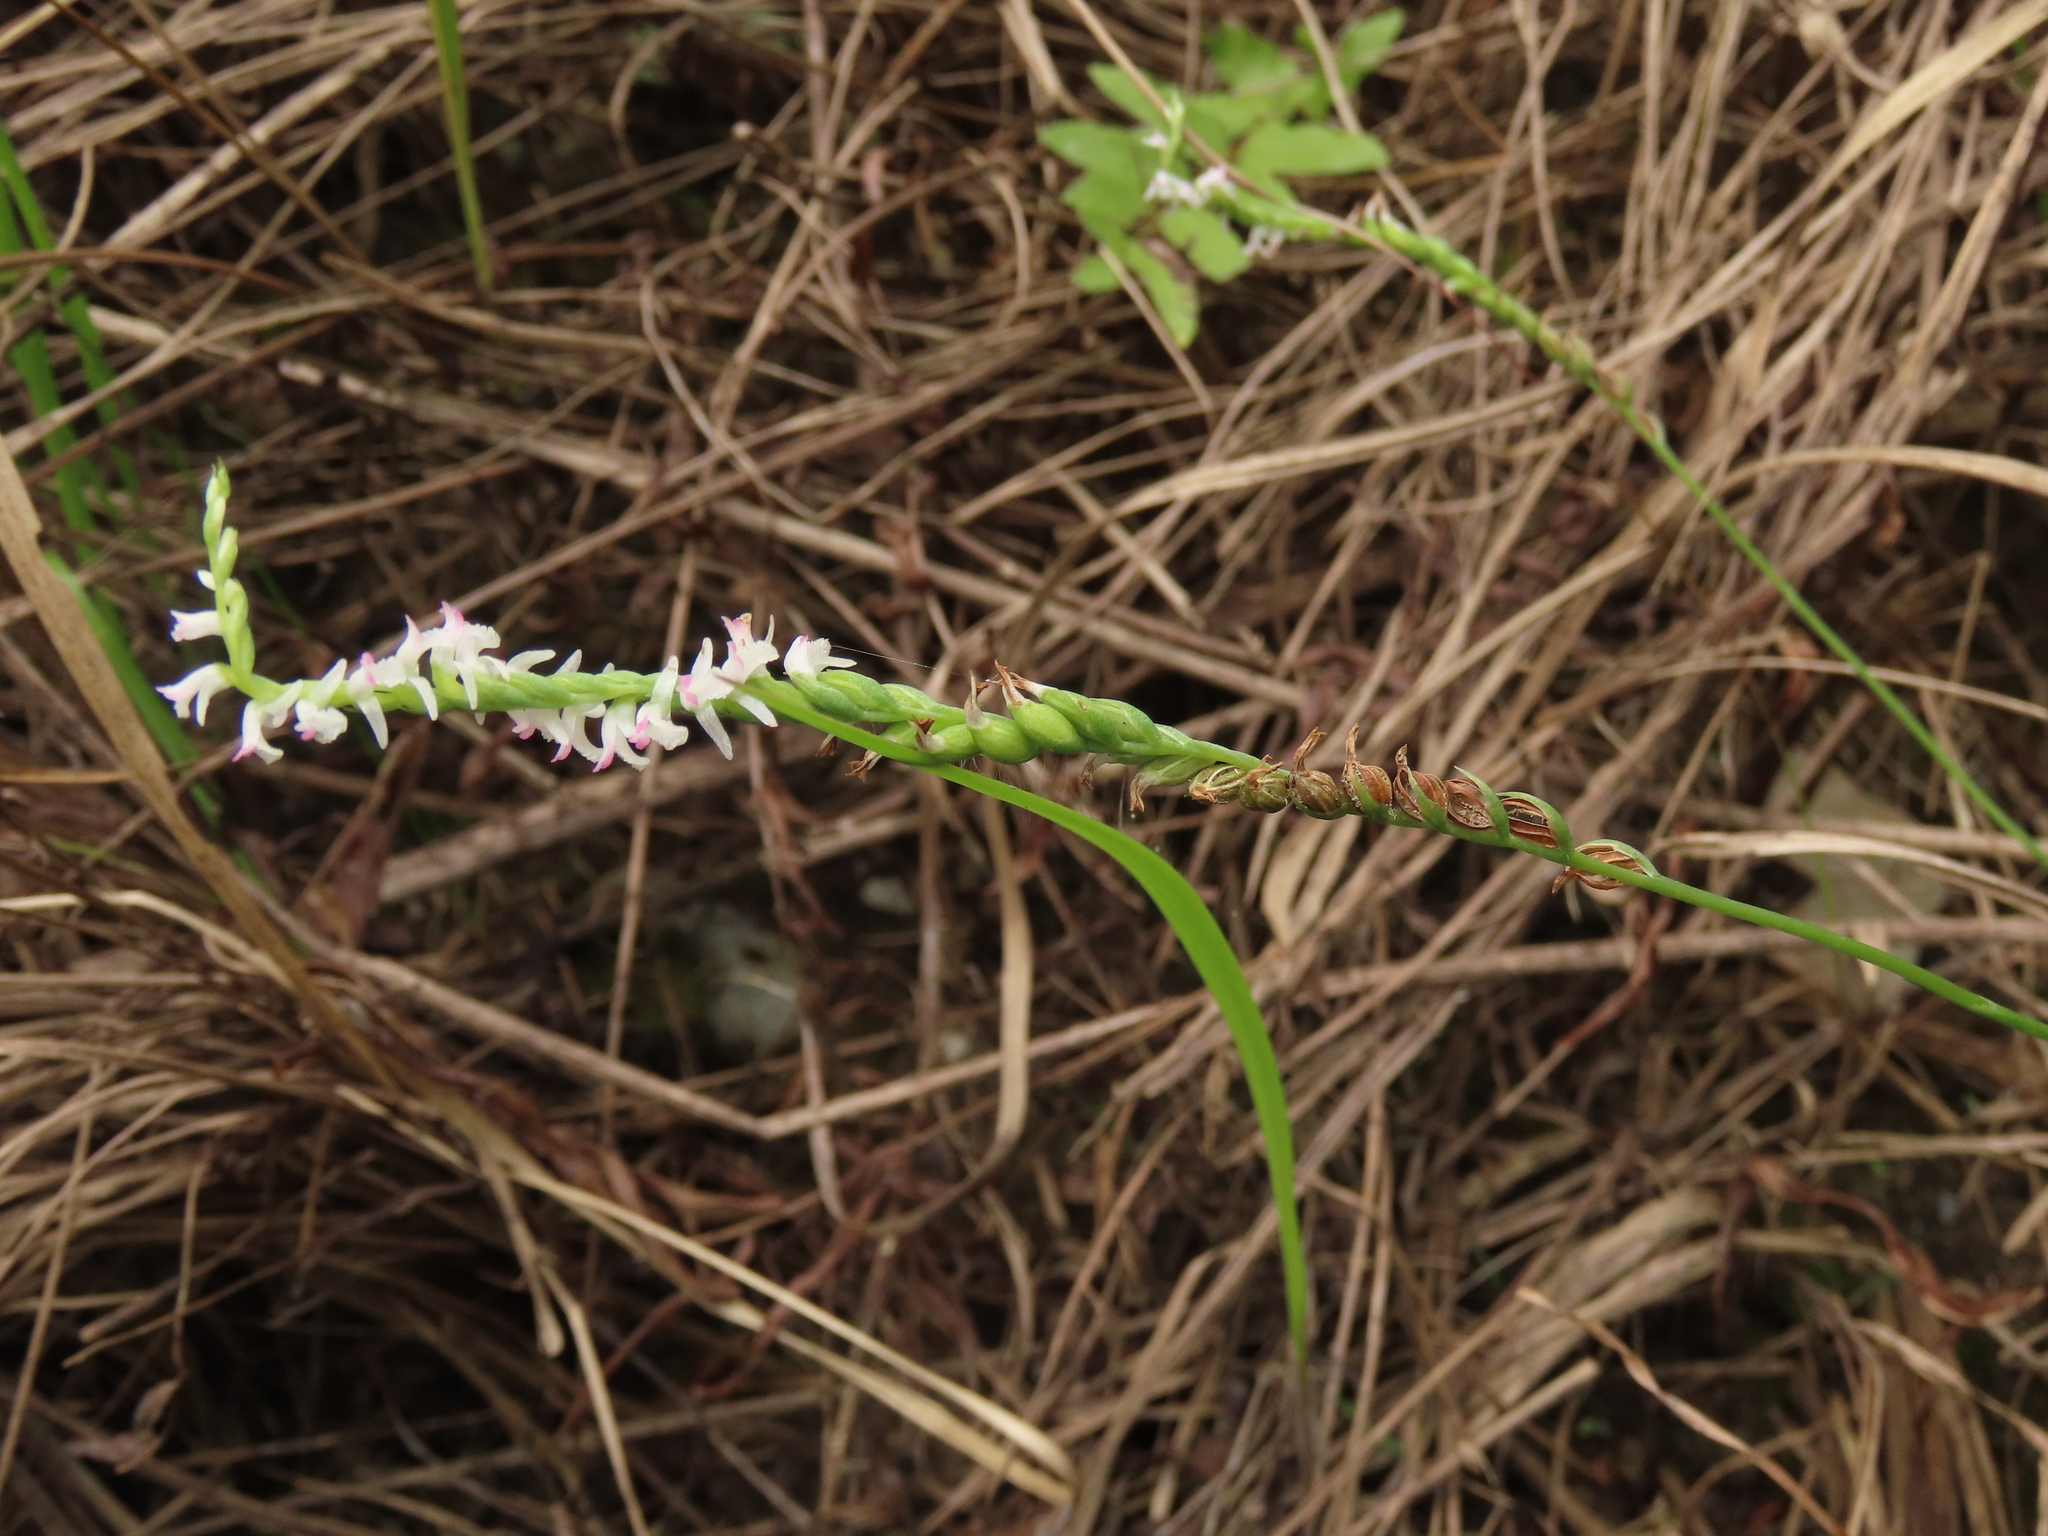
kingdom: Plantae
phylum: Tracheophyta
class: Liliopsida
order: Asparagales
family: Orchidaceae
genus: Spiranthes
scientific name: Spiranthes sinensis
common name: Chinese spiranthes
